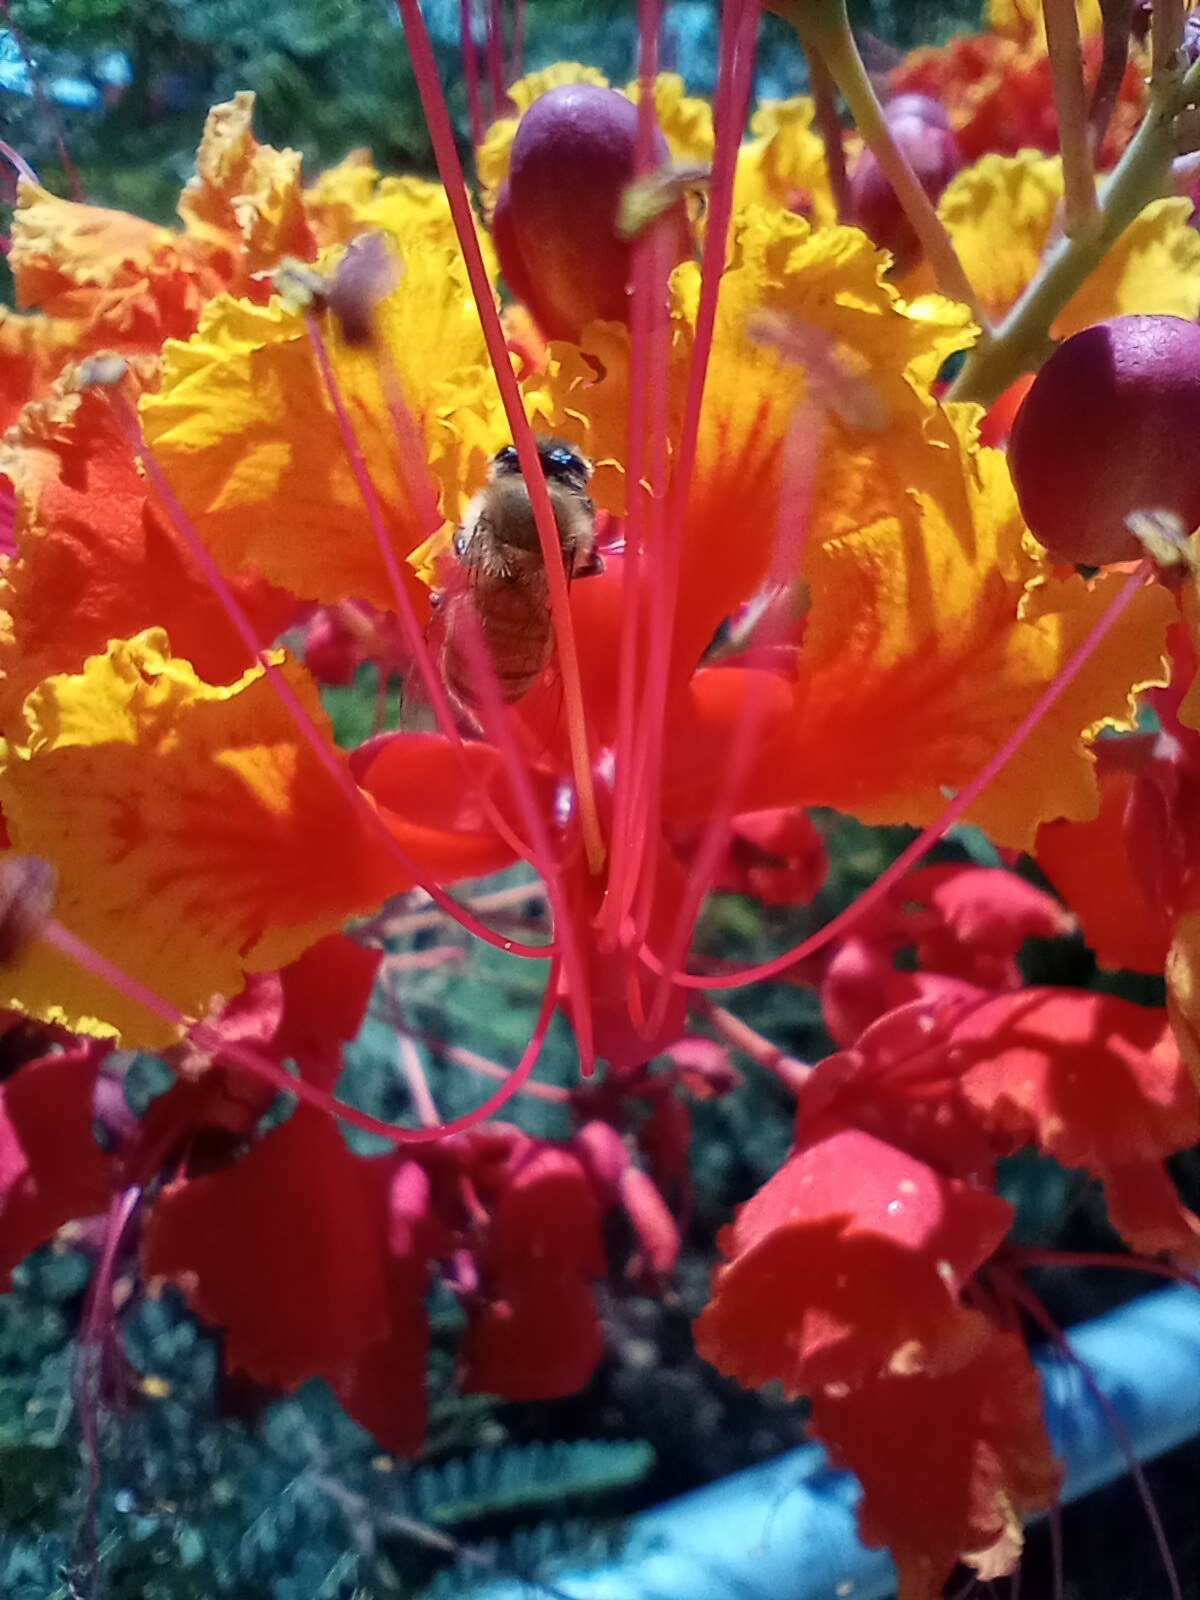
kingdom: Animalia
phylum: Arthropoda
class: Insecta
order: Hymenoptera
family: Apidae
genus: Apis
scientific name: Apis mellifera
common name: Honey bee
